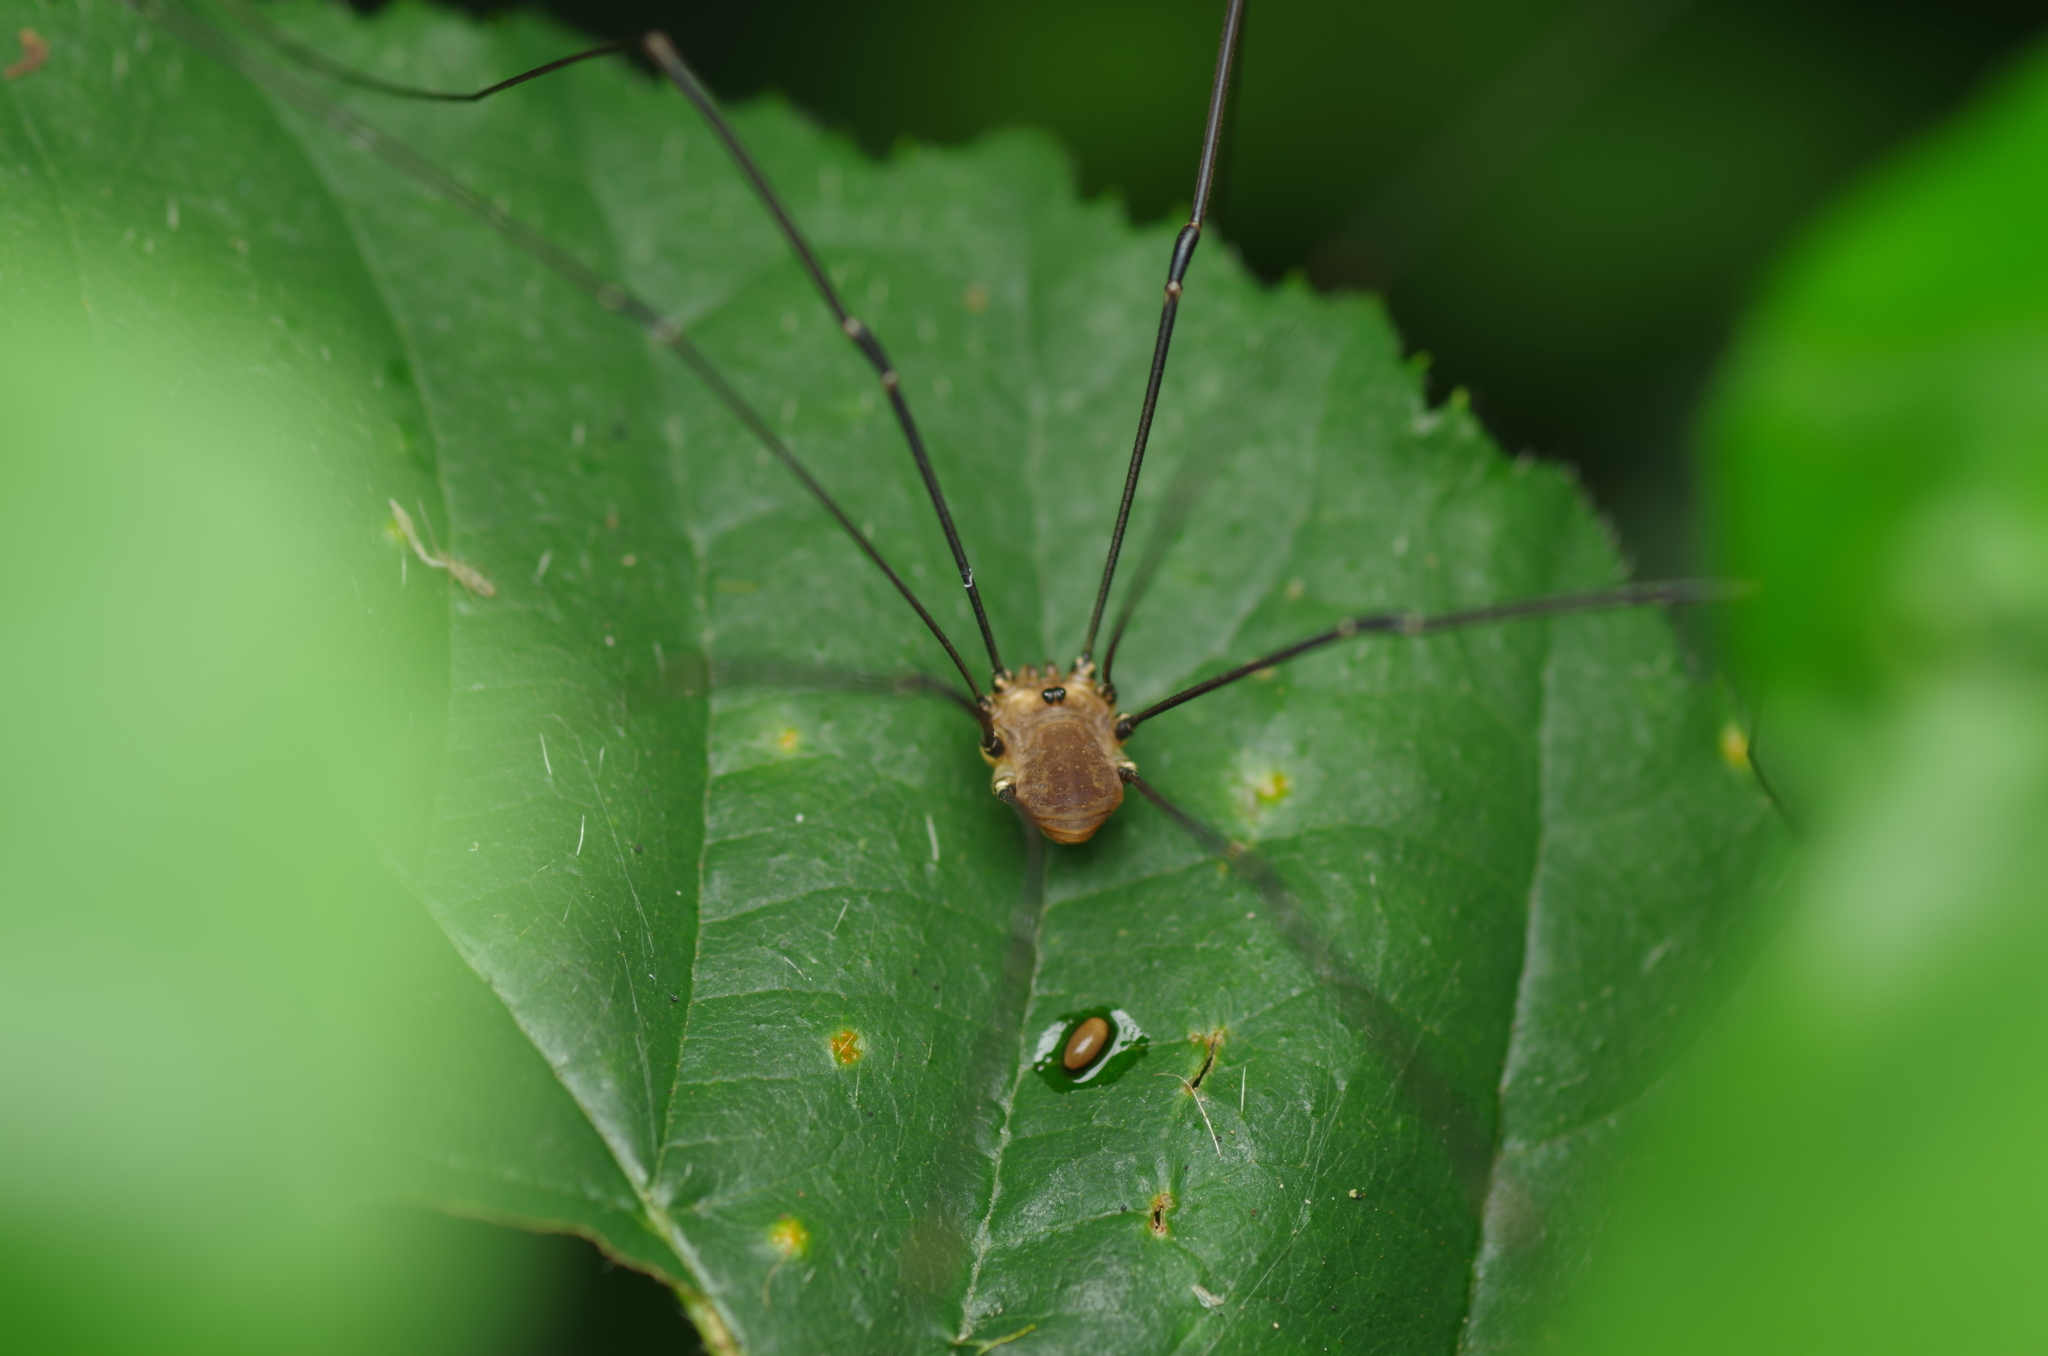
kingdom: Animalia
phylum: Arthropoda
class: Arachnida
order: Opiliones
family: Sclerosomatidae
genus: Leiobunum
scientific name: Leiobunum rotundum
